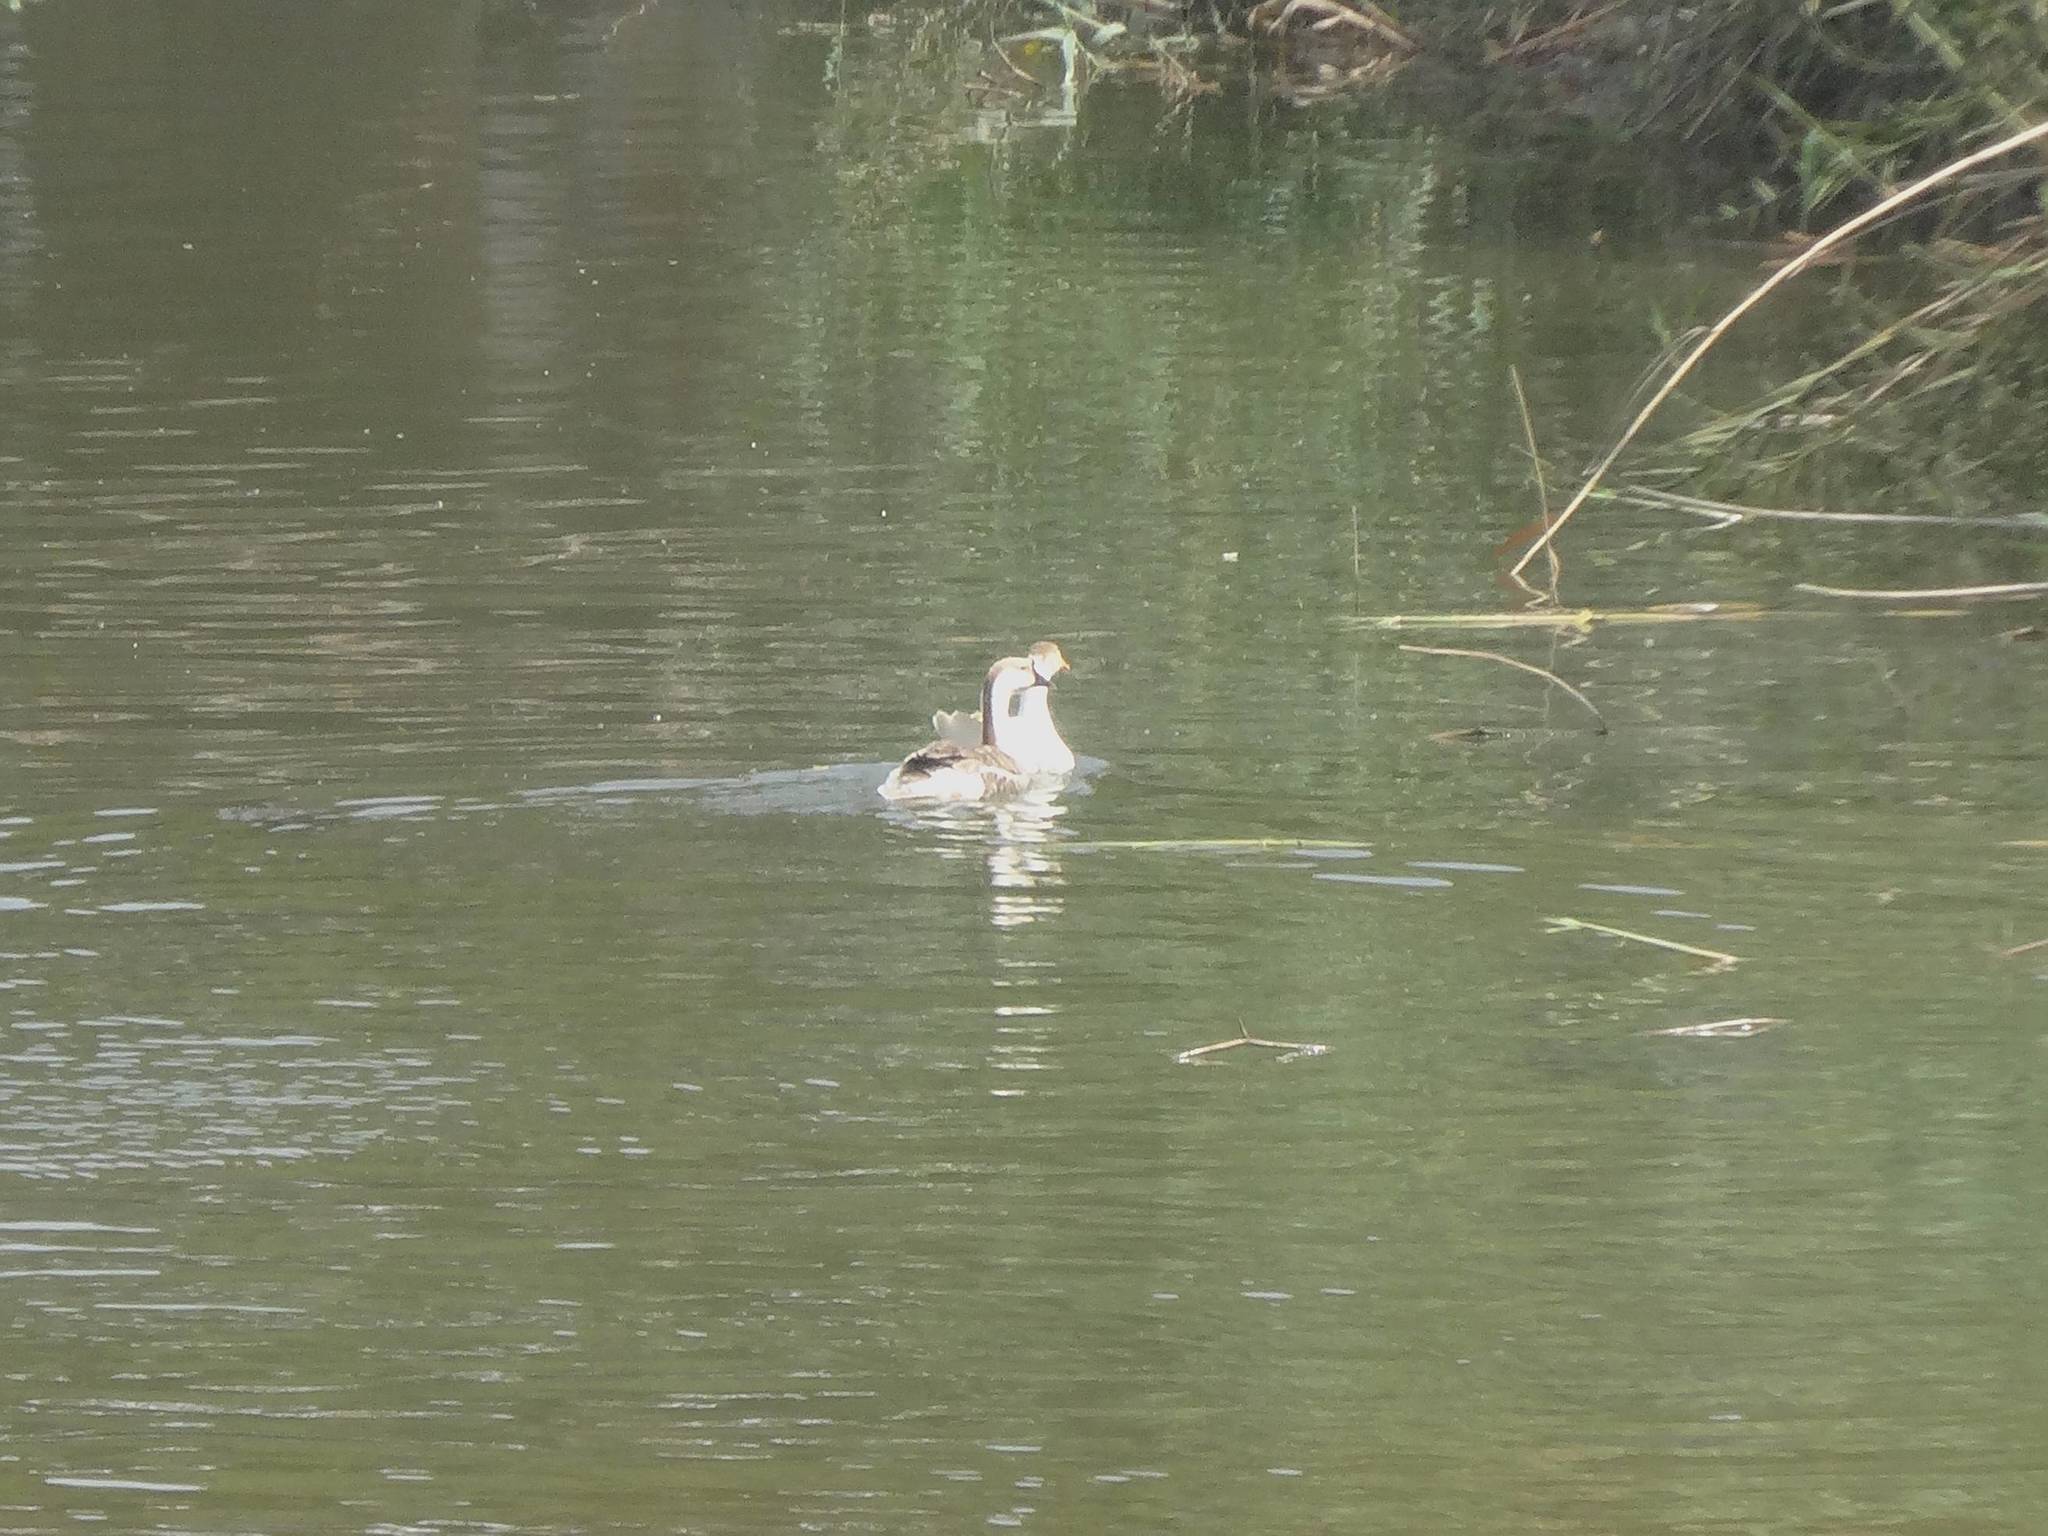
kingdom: Animalia
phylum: Chordata
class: Aves
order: Anseriformes
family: Anatidae
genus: Anser
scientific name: Anser cygnoides
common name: Swan goose
